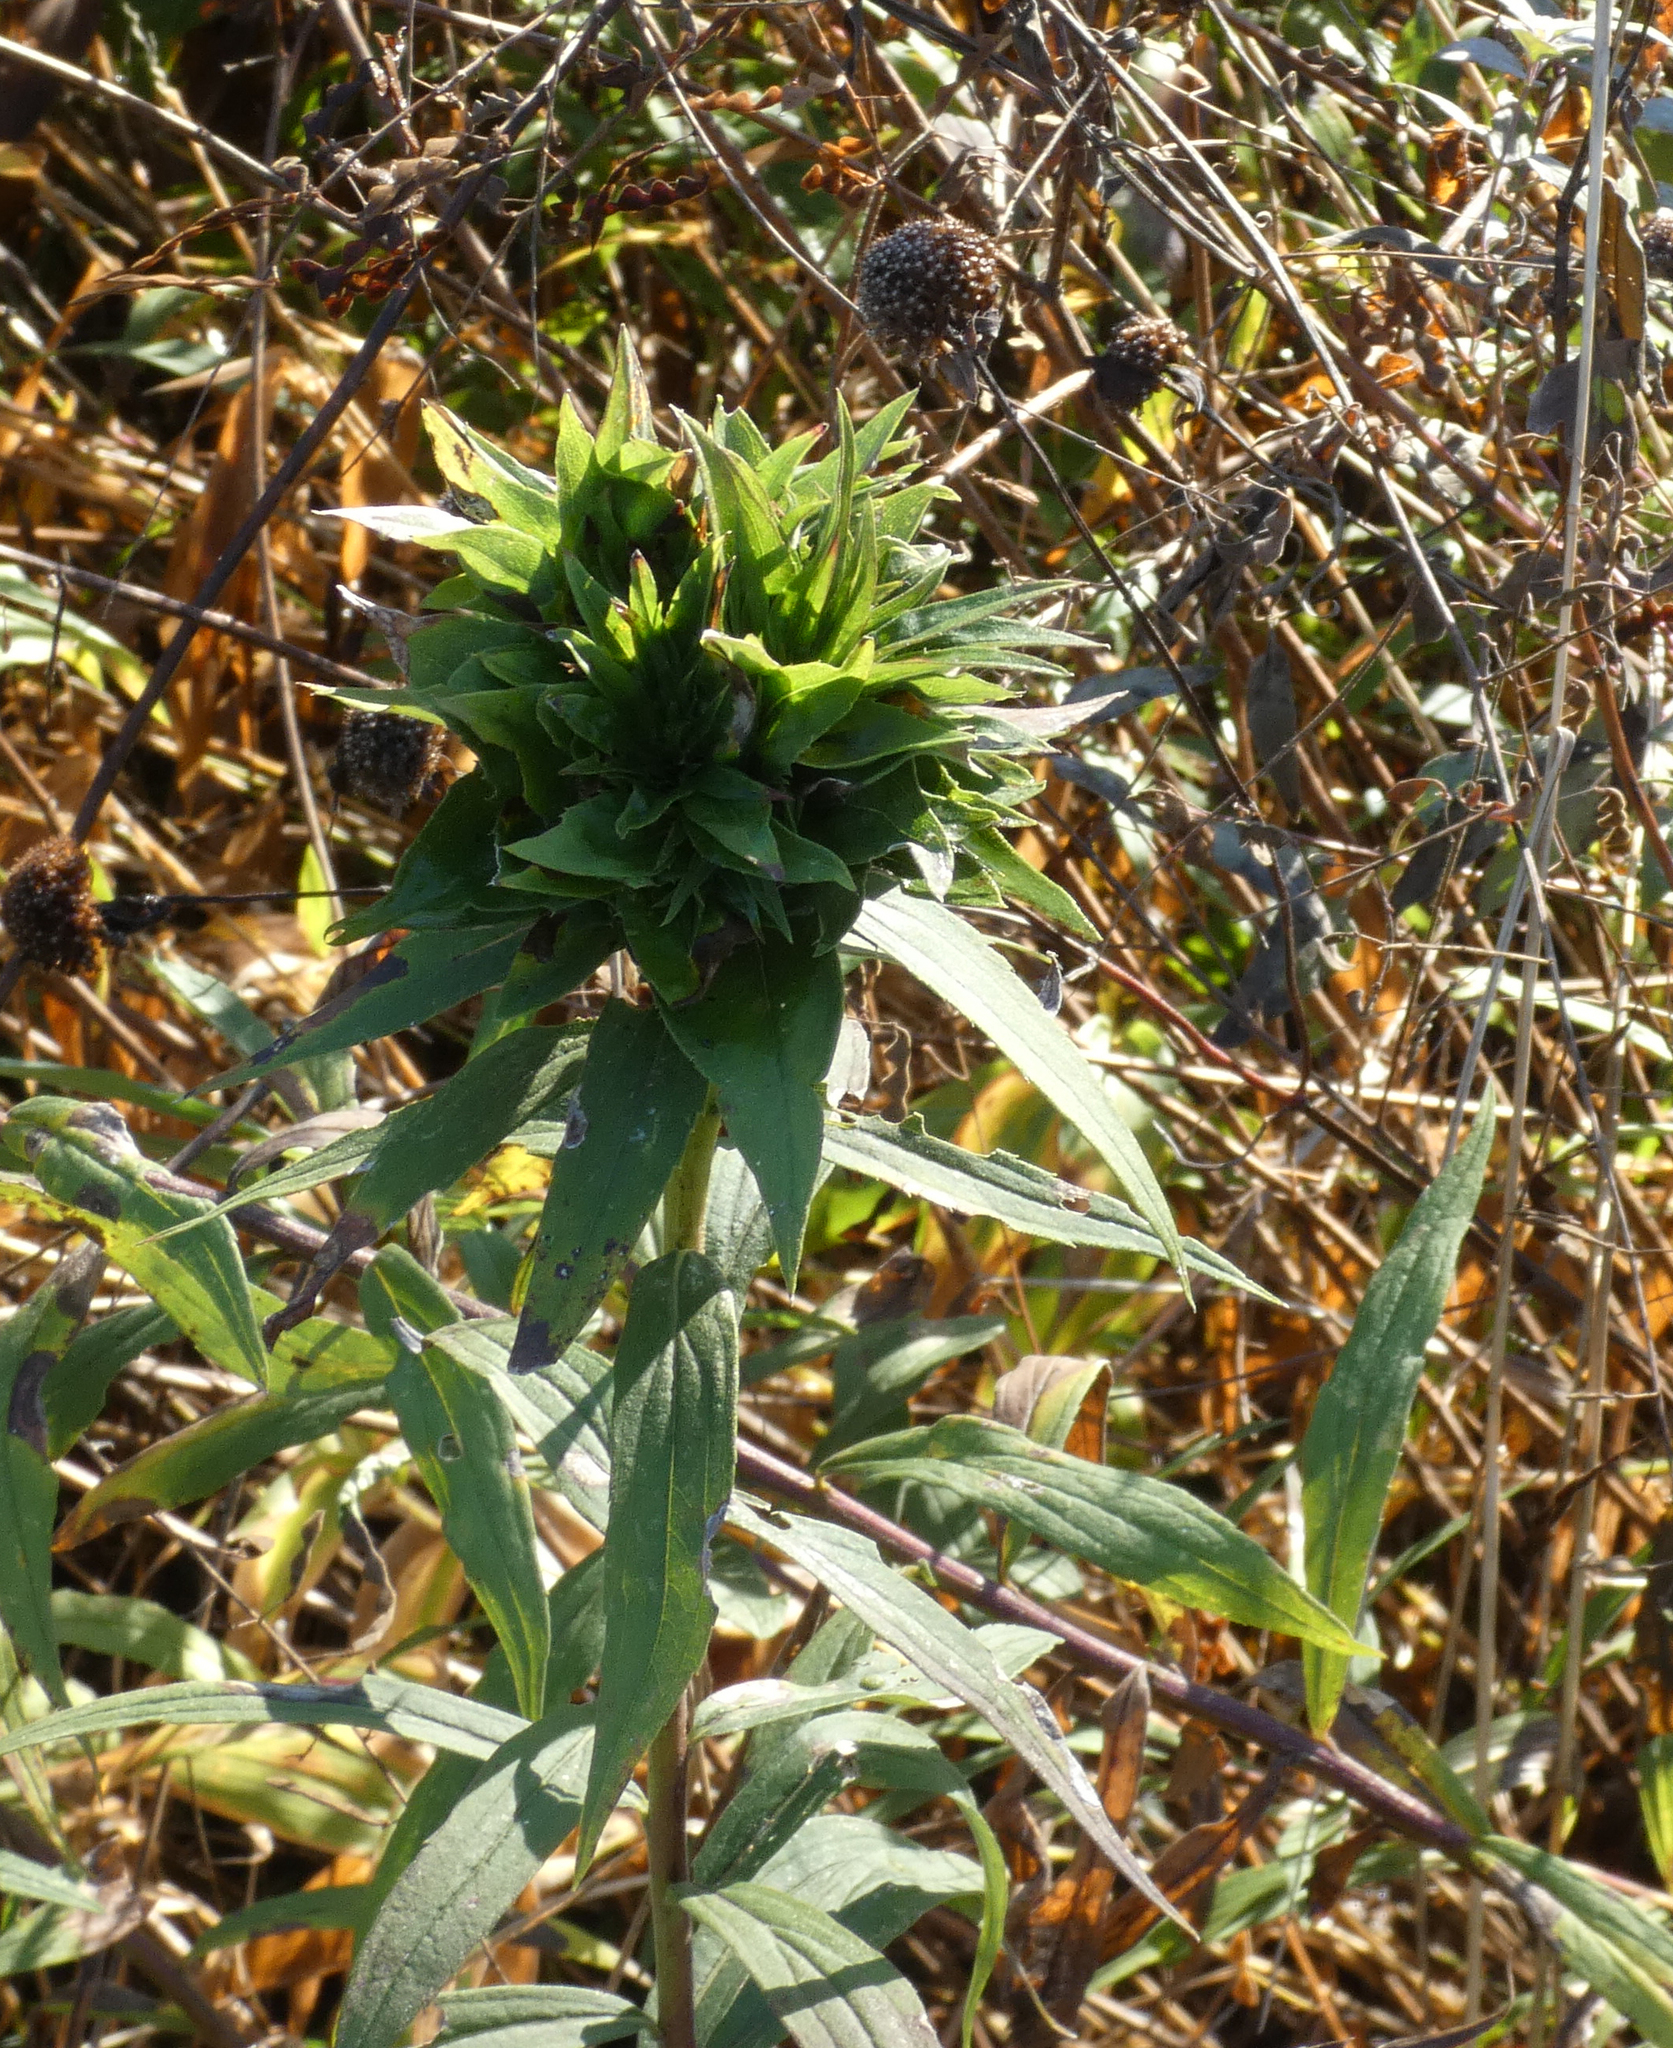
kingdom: Animalia
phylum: Arthropoda
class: Insecta
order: Diptera
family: Cecidomyiidae
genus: Rhopalomyia
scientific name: Rhopalomyia solidaginis
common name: Goldenrod bunch gall midge
